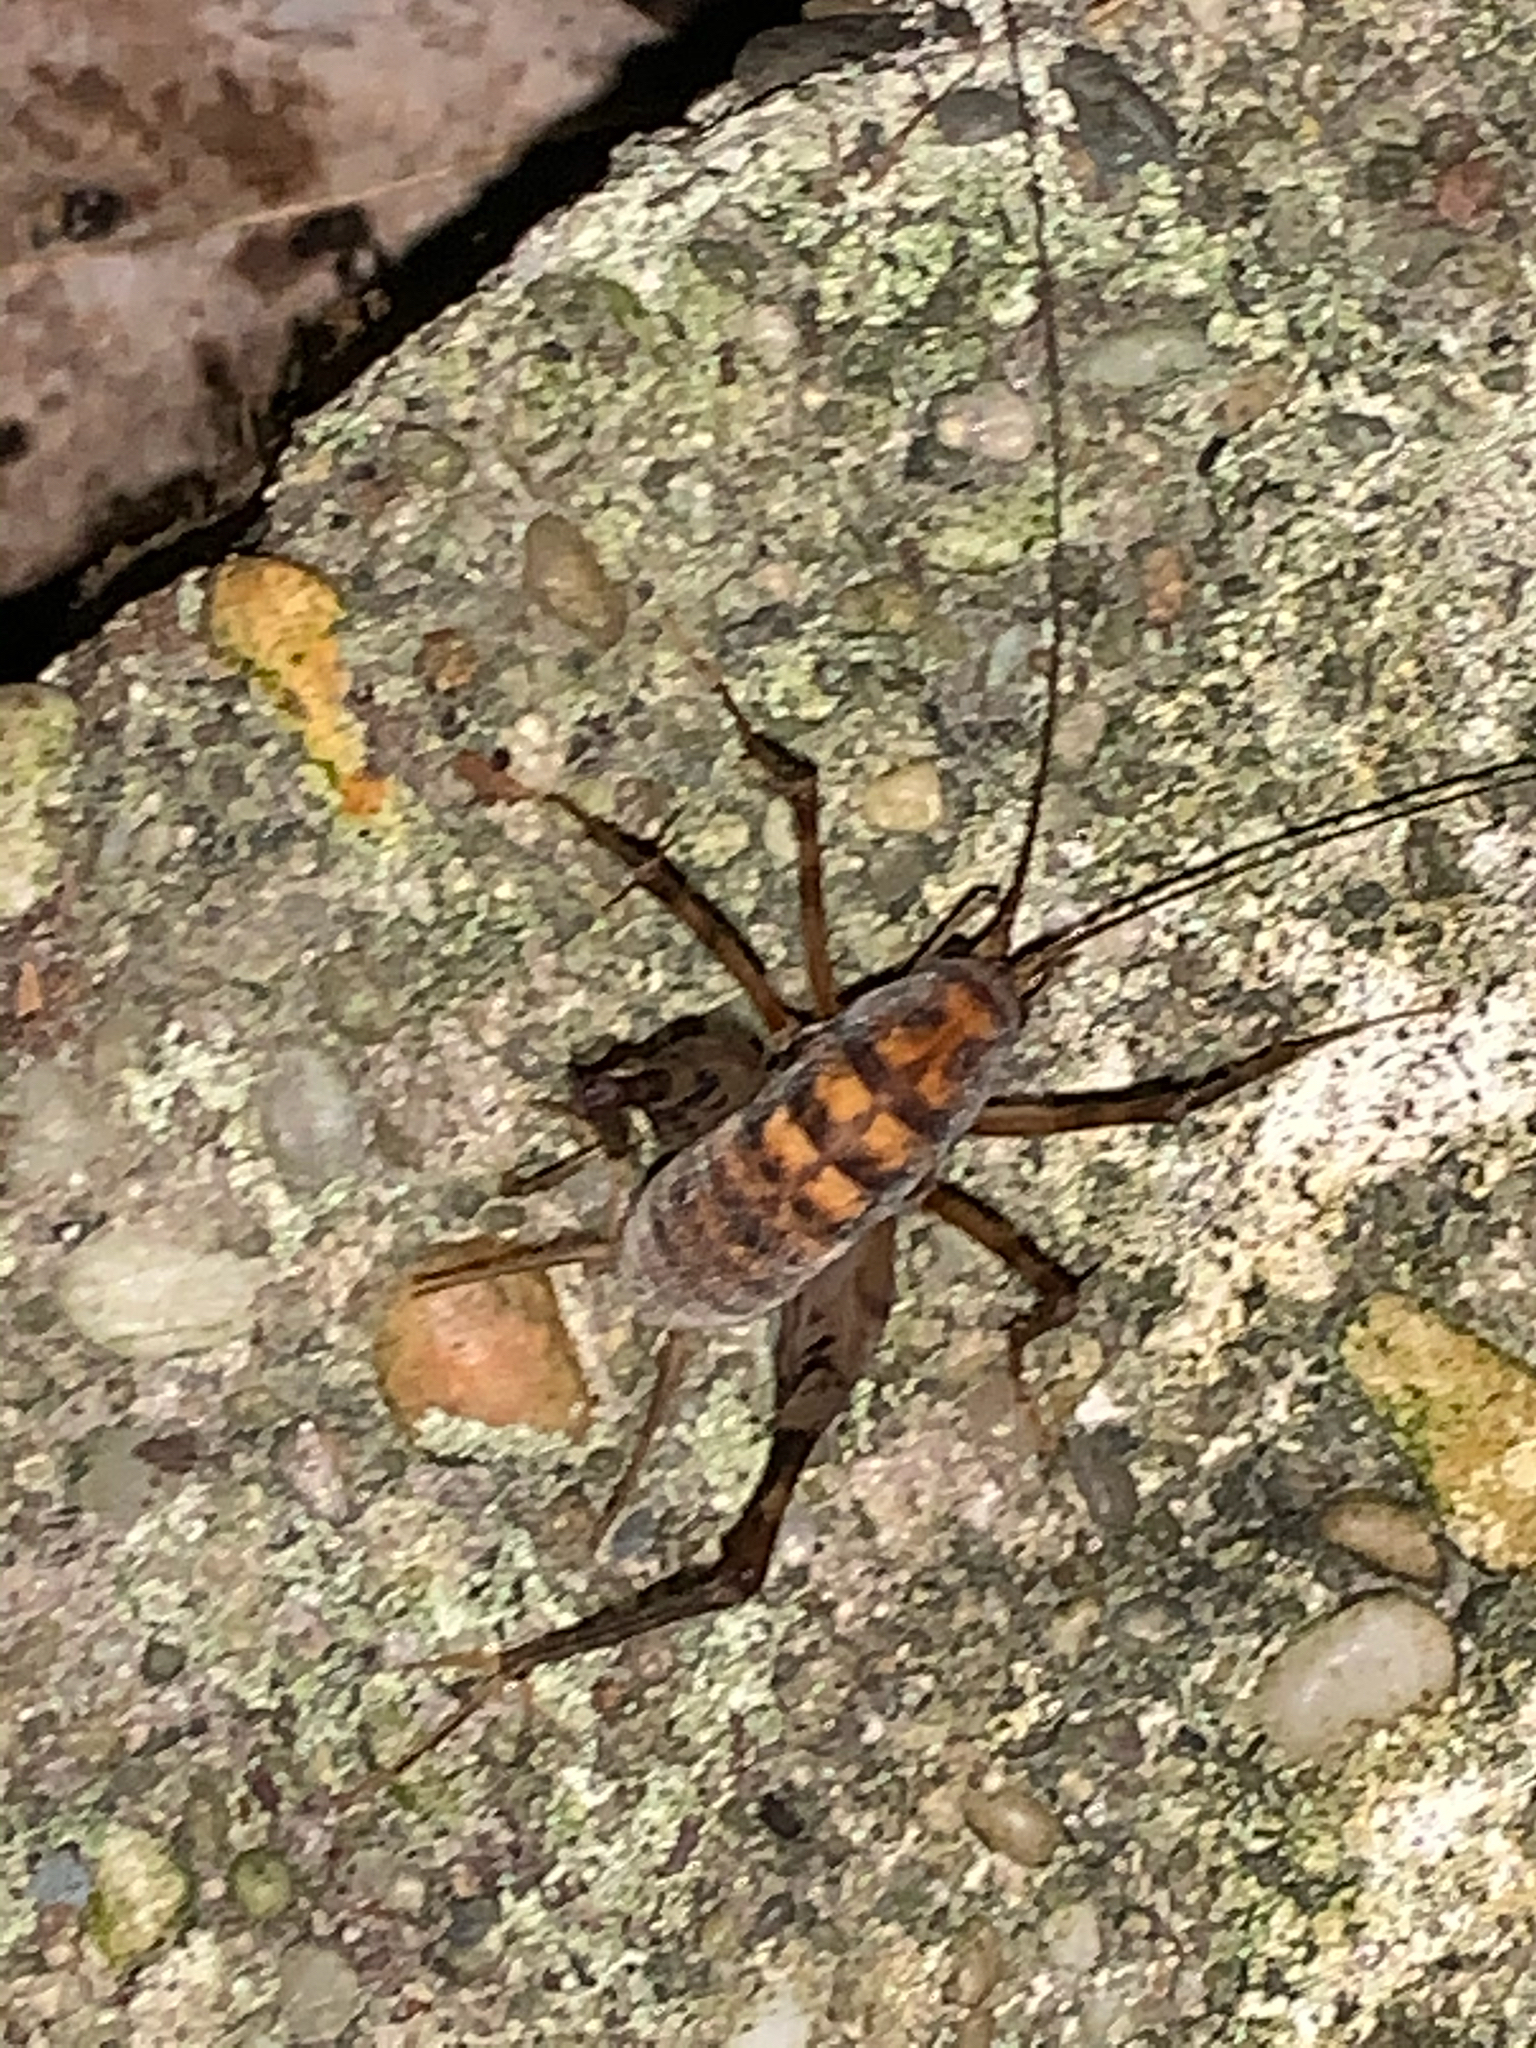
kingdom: Animalia
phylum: Arthropoda
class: Insecta
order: Orthoptera
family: Rhaphidophoridae
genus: Tachycines
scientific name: Tachycines asynamorus
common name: Greenhouse camel cricket
